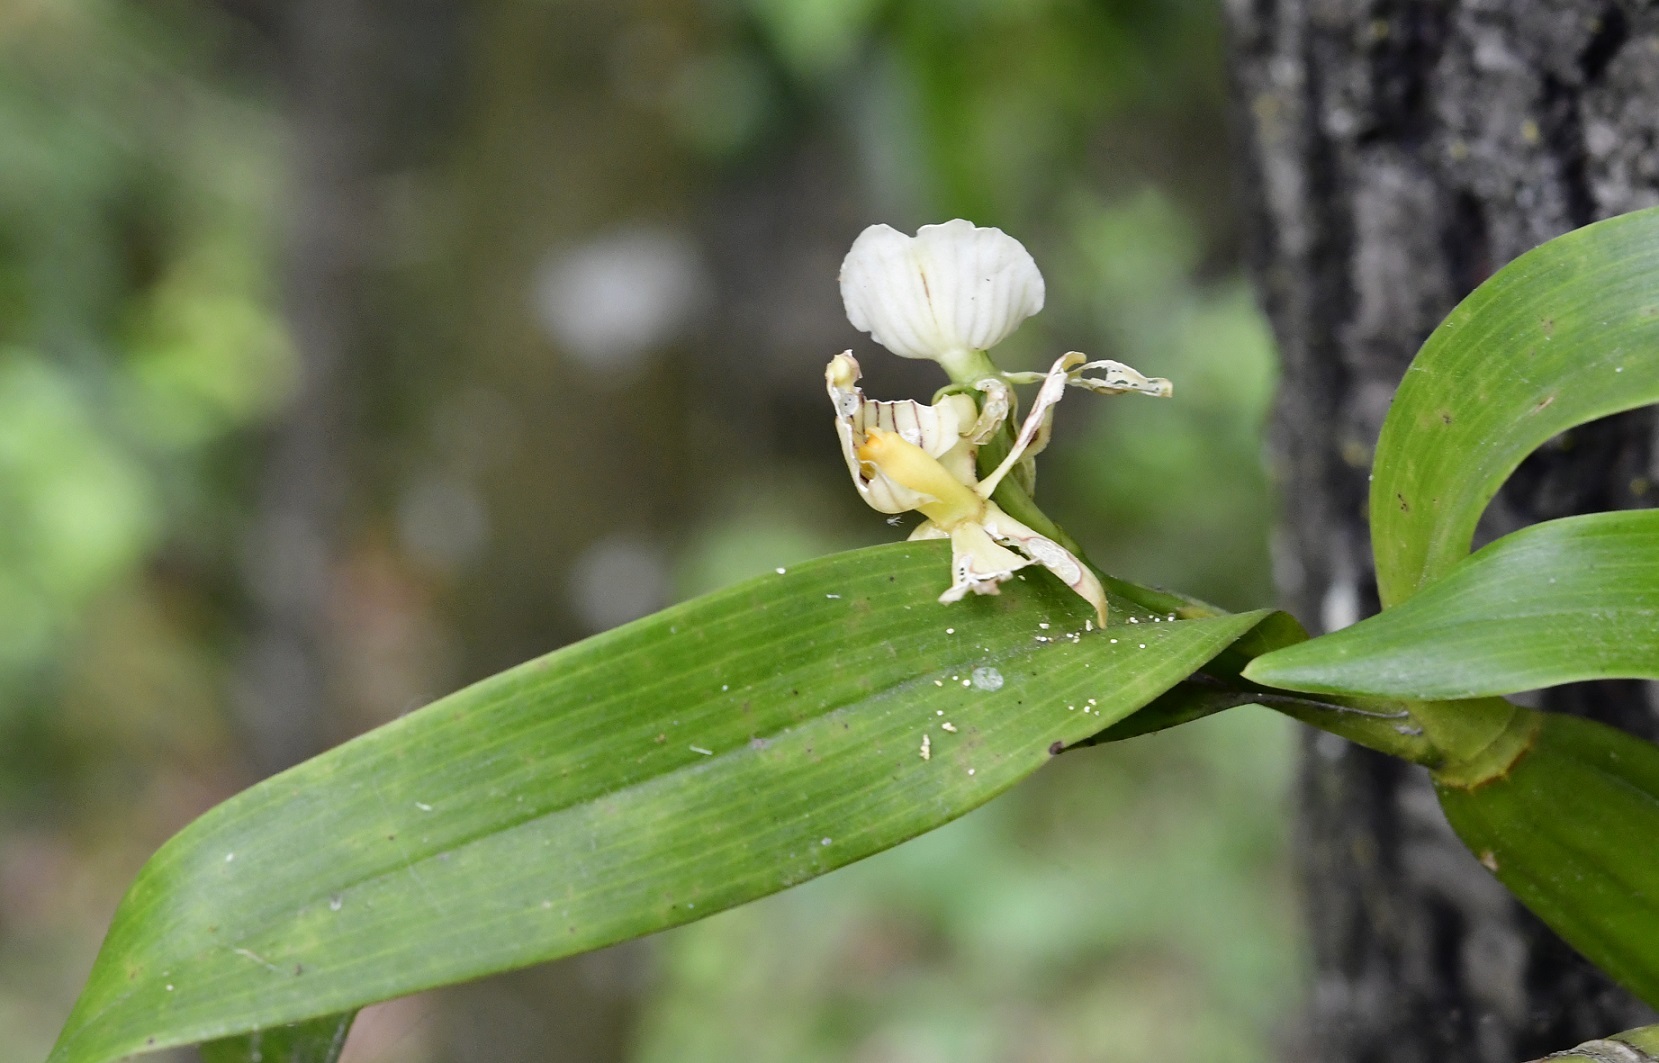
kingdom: Plantae
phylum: Tracheophyta
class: Liliopsida
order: Asparagales
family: Orchidaceae
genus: Prosthechea
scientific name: Prosthechea radiata
